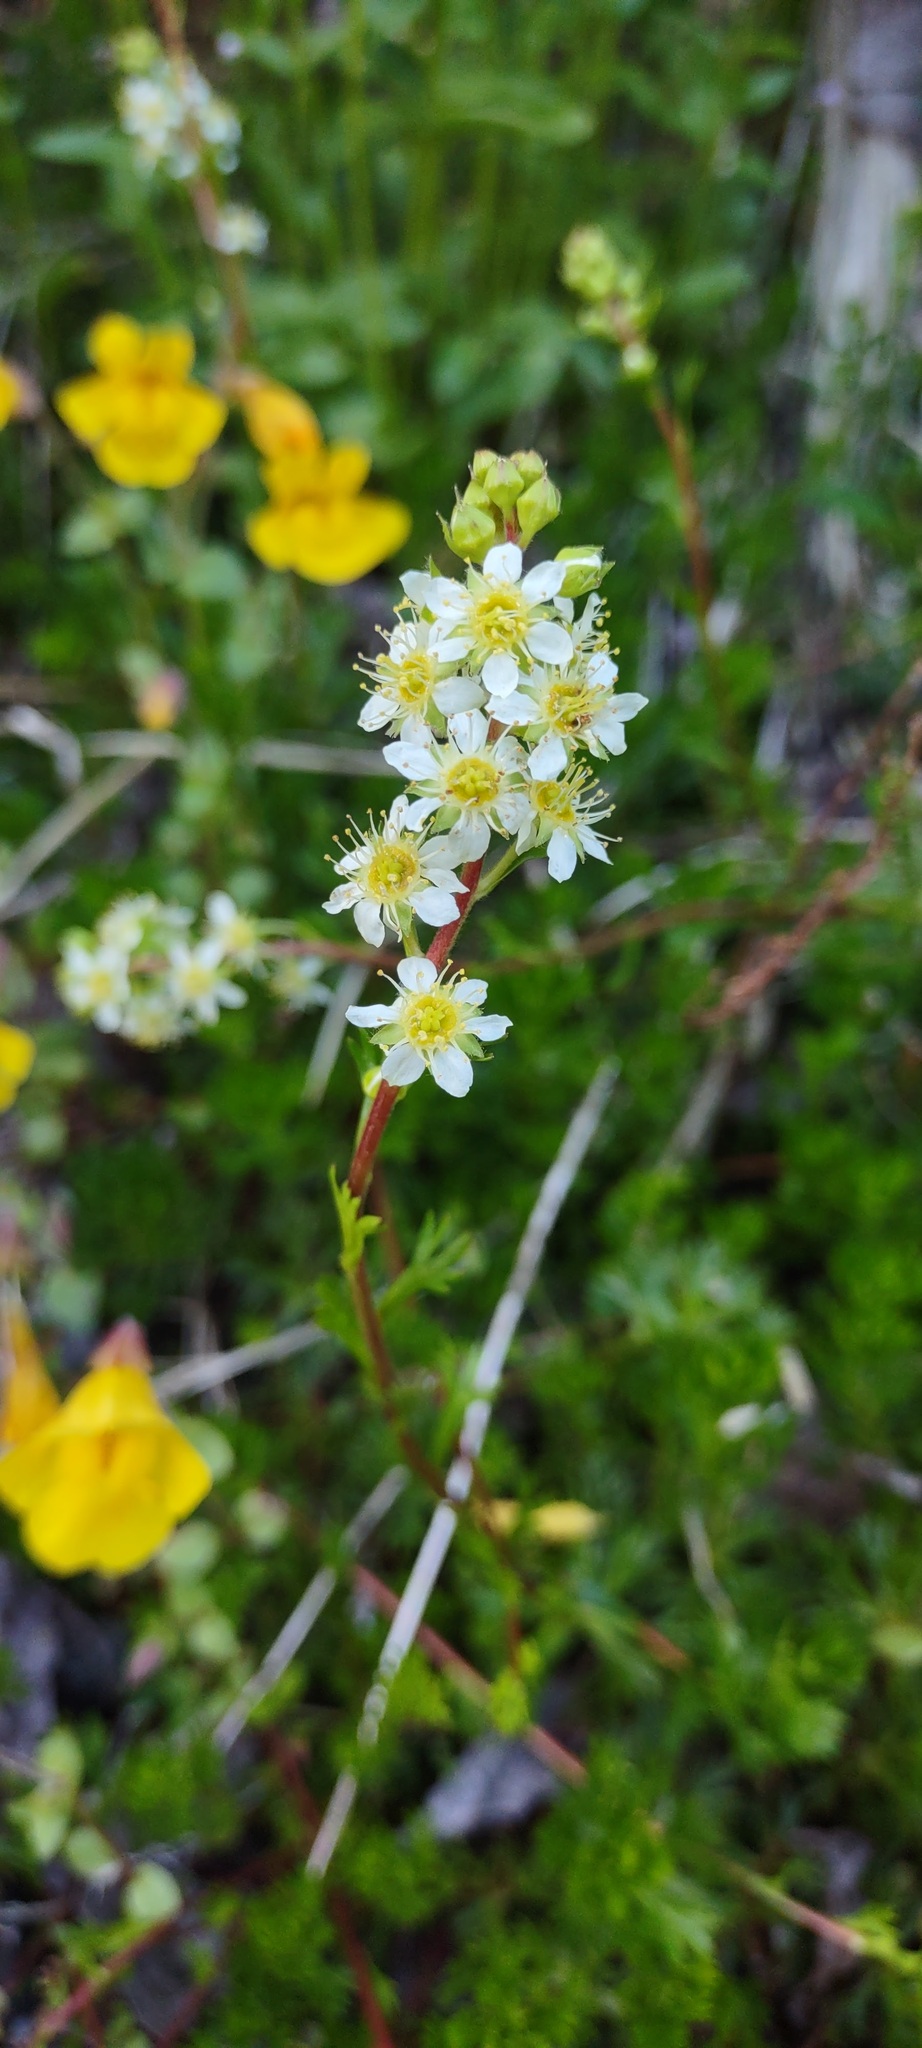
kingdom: Plantae
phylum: Tracheophyta
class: Magnoliopsida
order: Rosales
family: Rosaceae
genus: Luetkea
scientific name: Luetkea pectinata
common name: Partridgefoot
